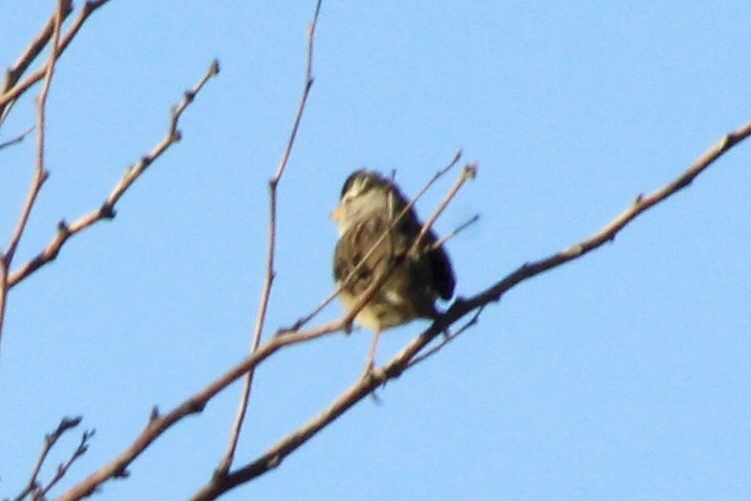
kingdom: Animalia
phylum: Chordata
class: Aves
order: Passeriformes
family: Passerellidae
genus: Zonotrichia
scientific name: Zonotrichia leucophrys
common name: White-crowned sparrow
